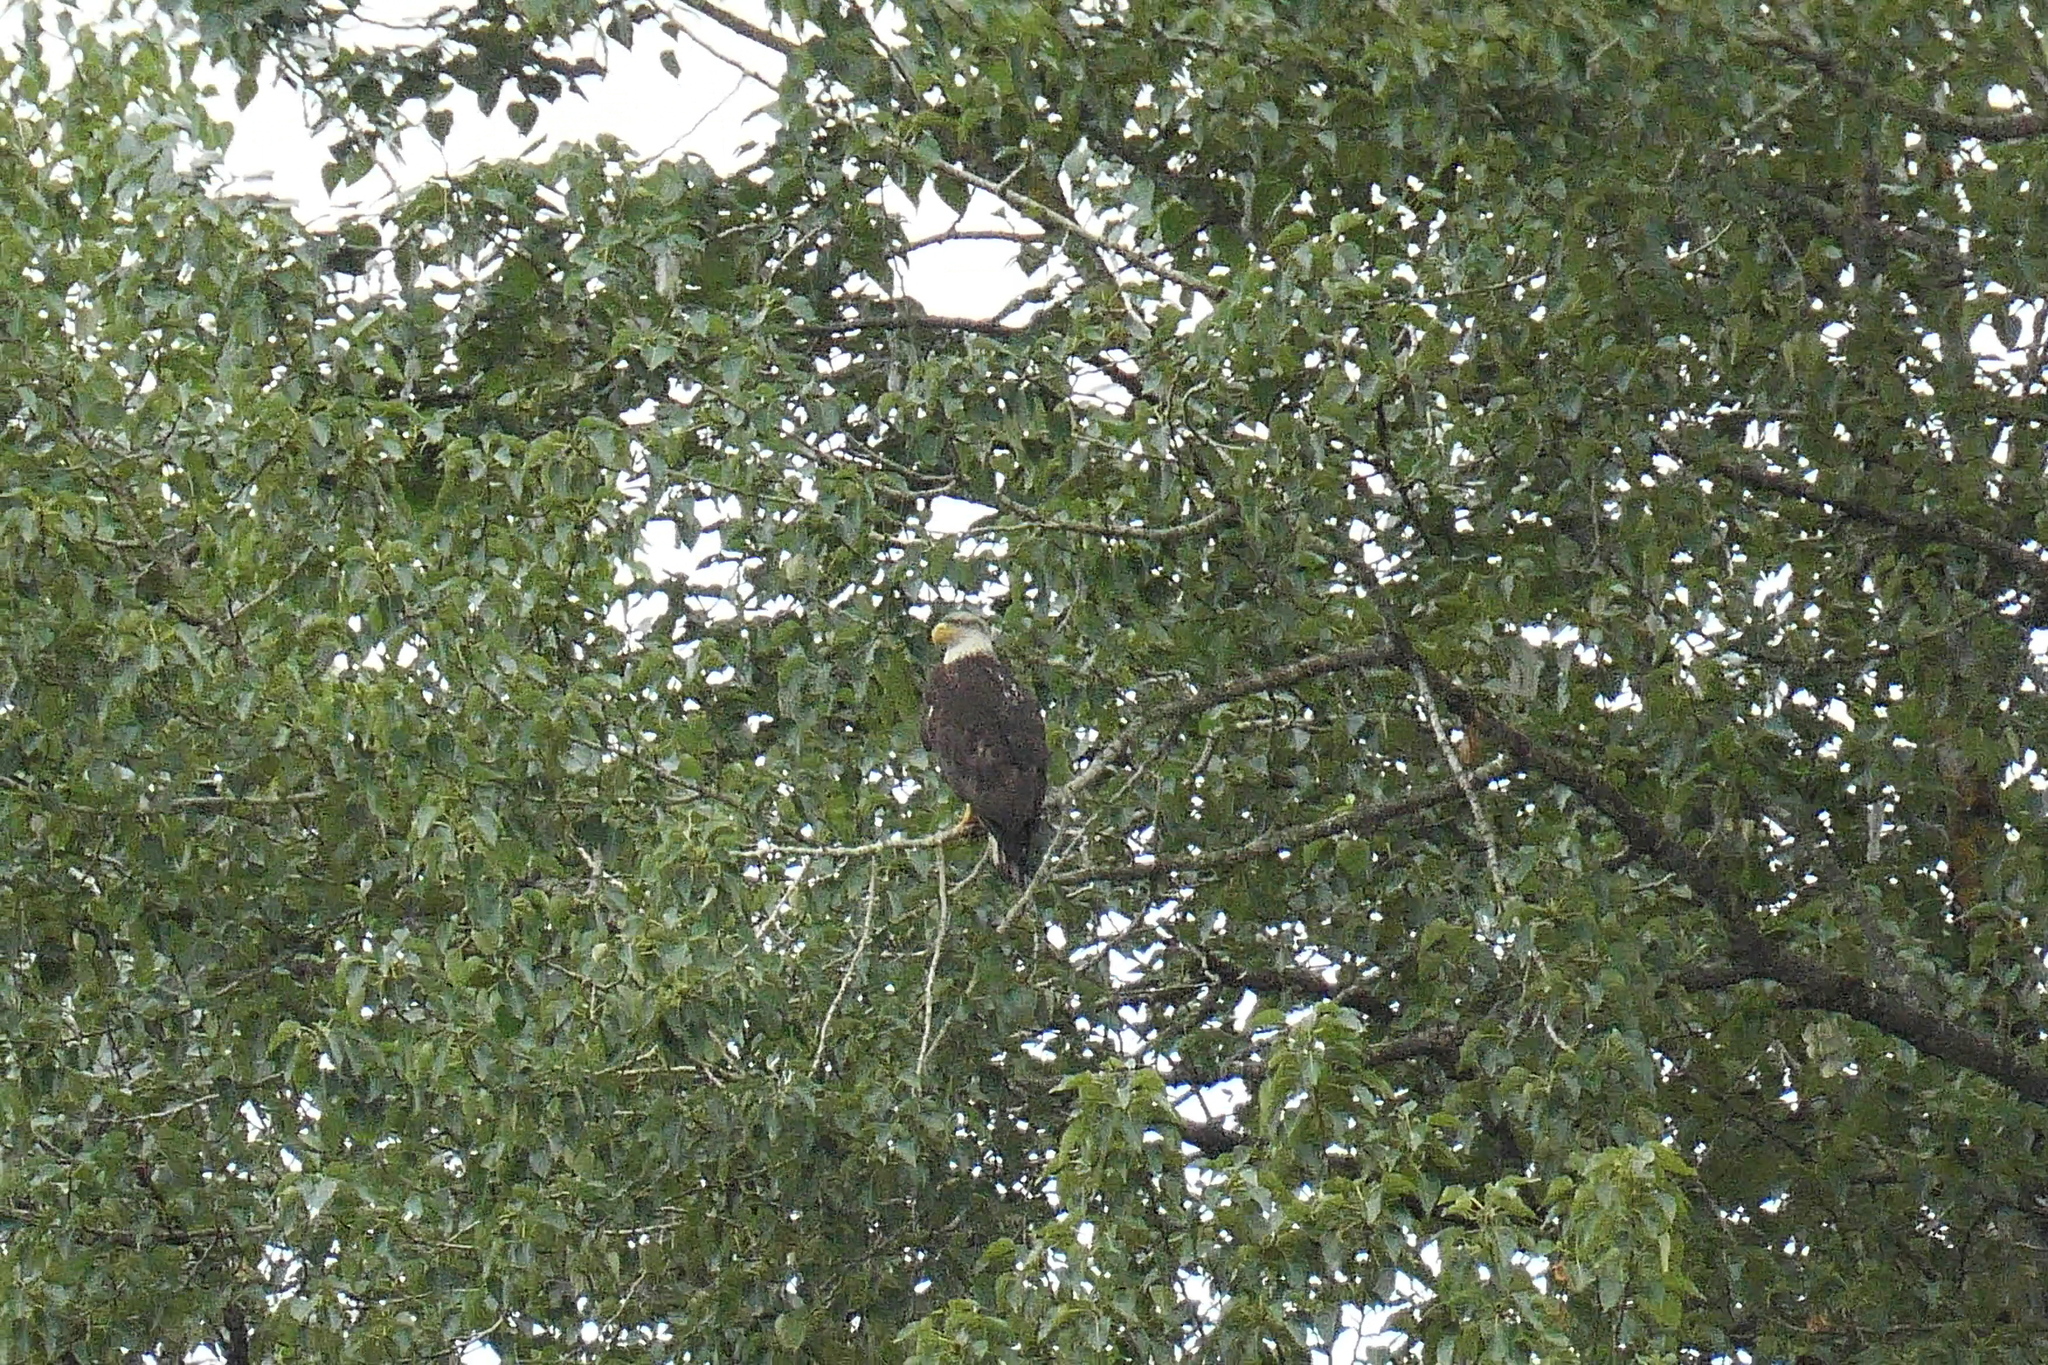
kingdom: Animalia
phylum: Chordata
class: Aves
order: Accipitriformes
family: Accipitridae
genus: Haliaeetus
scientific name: Haliaeetus leucocephalus
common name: Bald eagle
